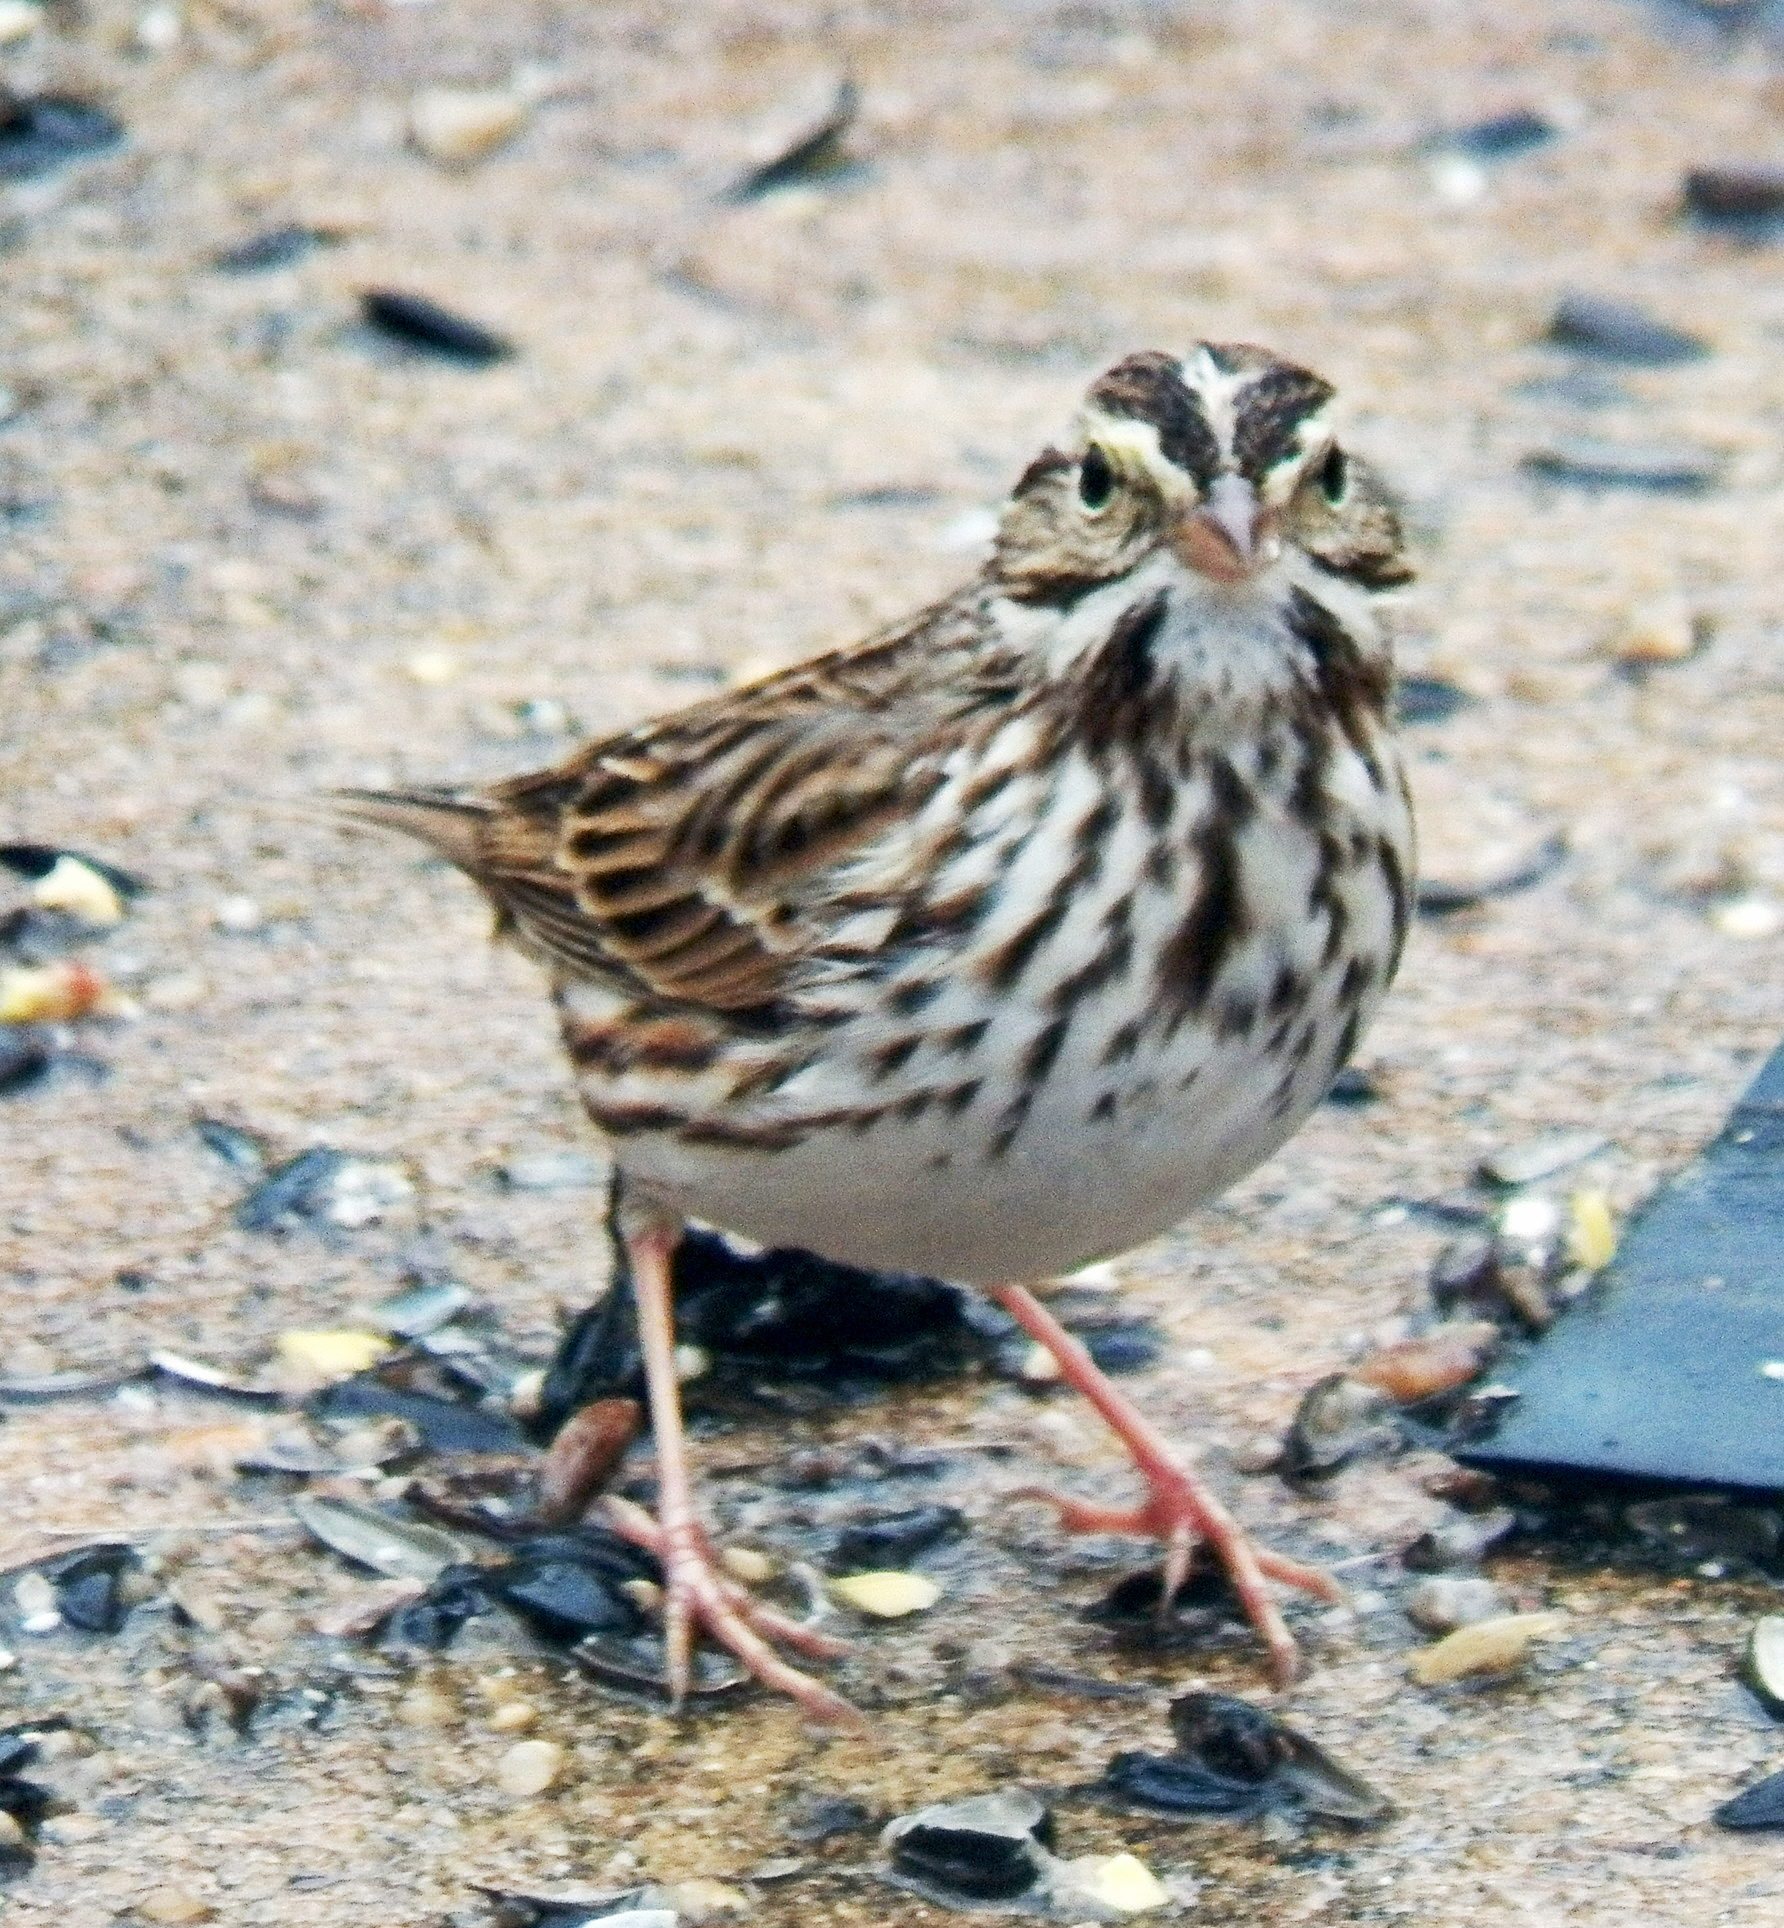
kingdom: Animalia
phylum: Chordata
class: Aves
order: Passeriformes
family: Passerellidae
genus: Passerculus
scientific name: Passerculus sandwichensis
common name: Savannah sparrow
